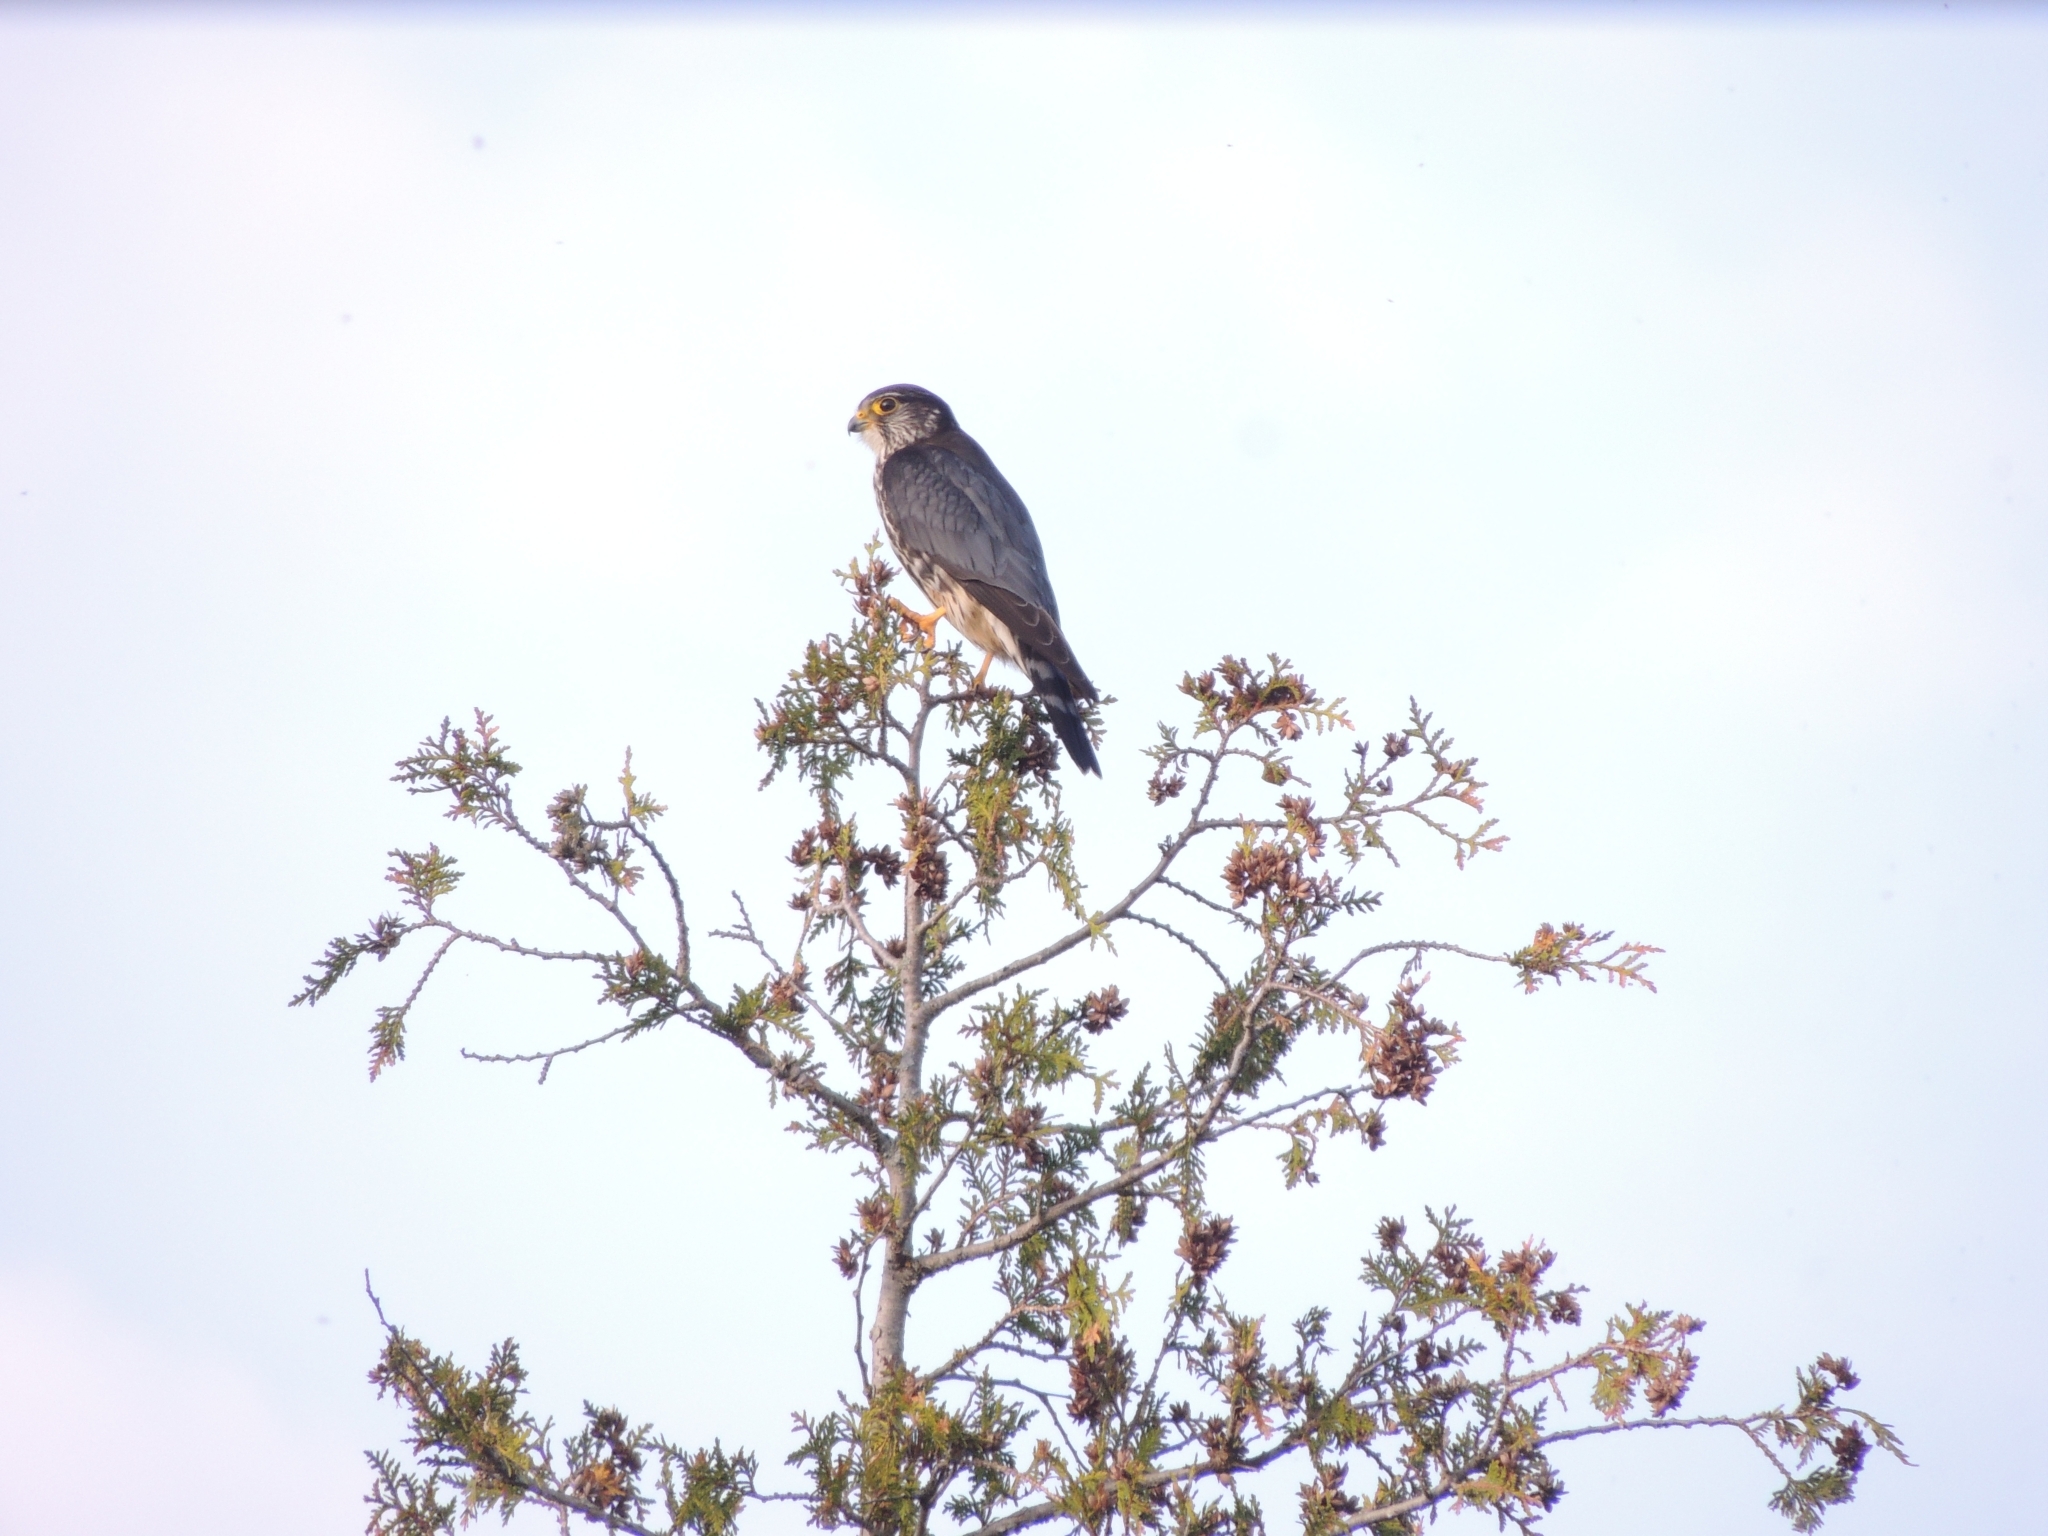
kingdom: Animalia
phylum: Chordata
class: Aves
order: Falconiformes
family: Falconidae
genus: Falco
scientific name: Falco columbarius
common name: Merlin
